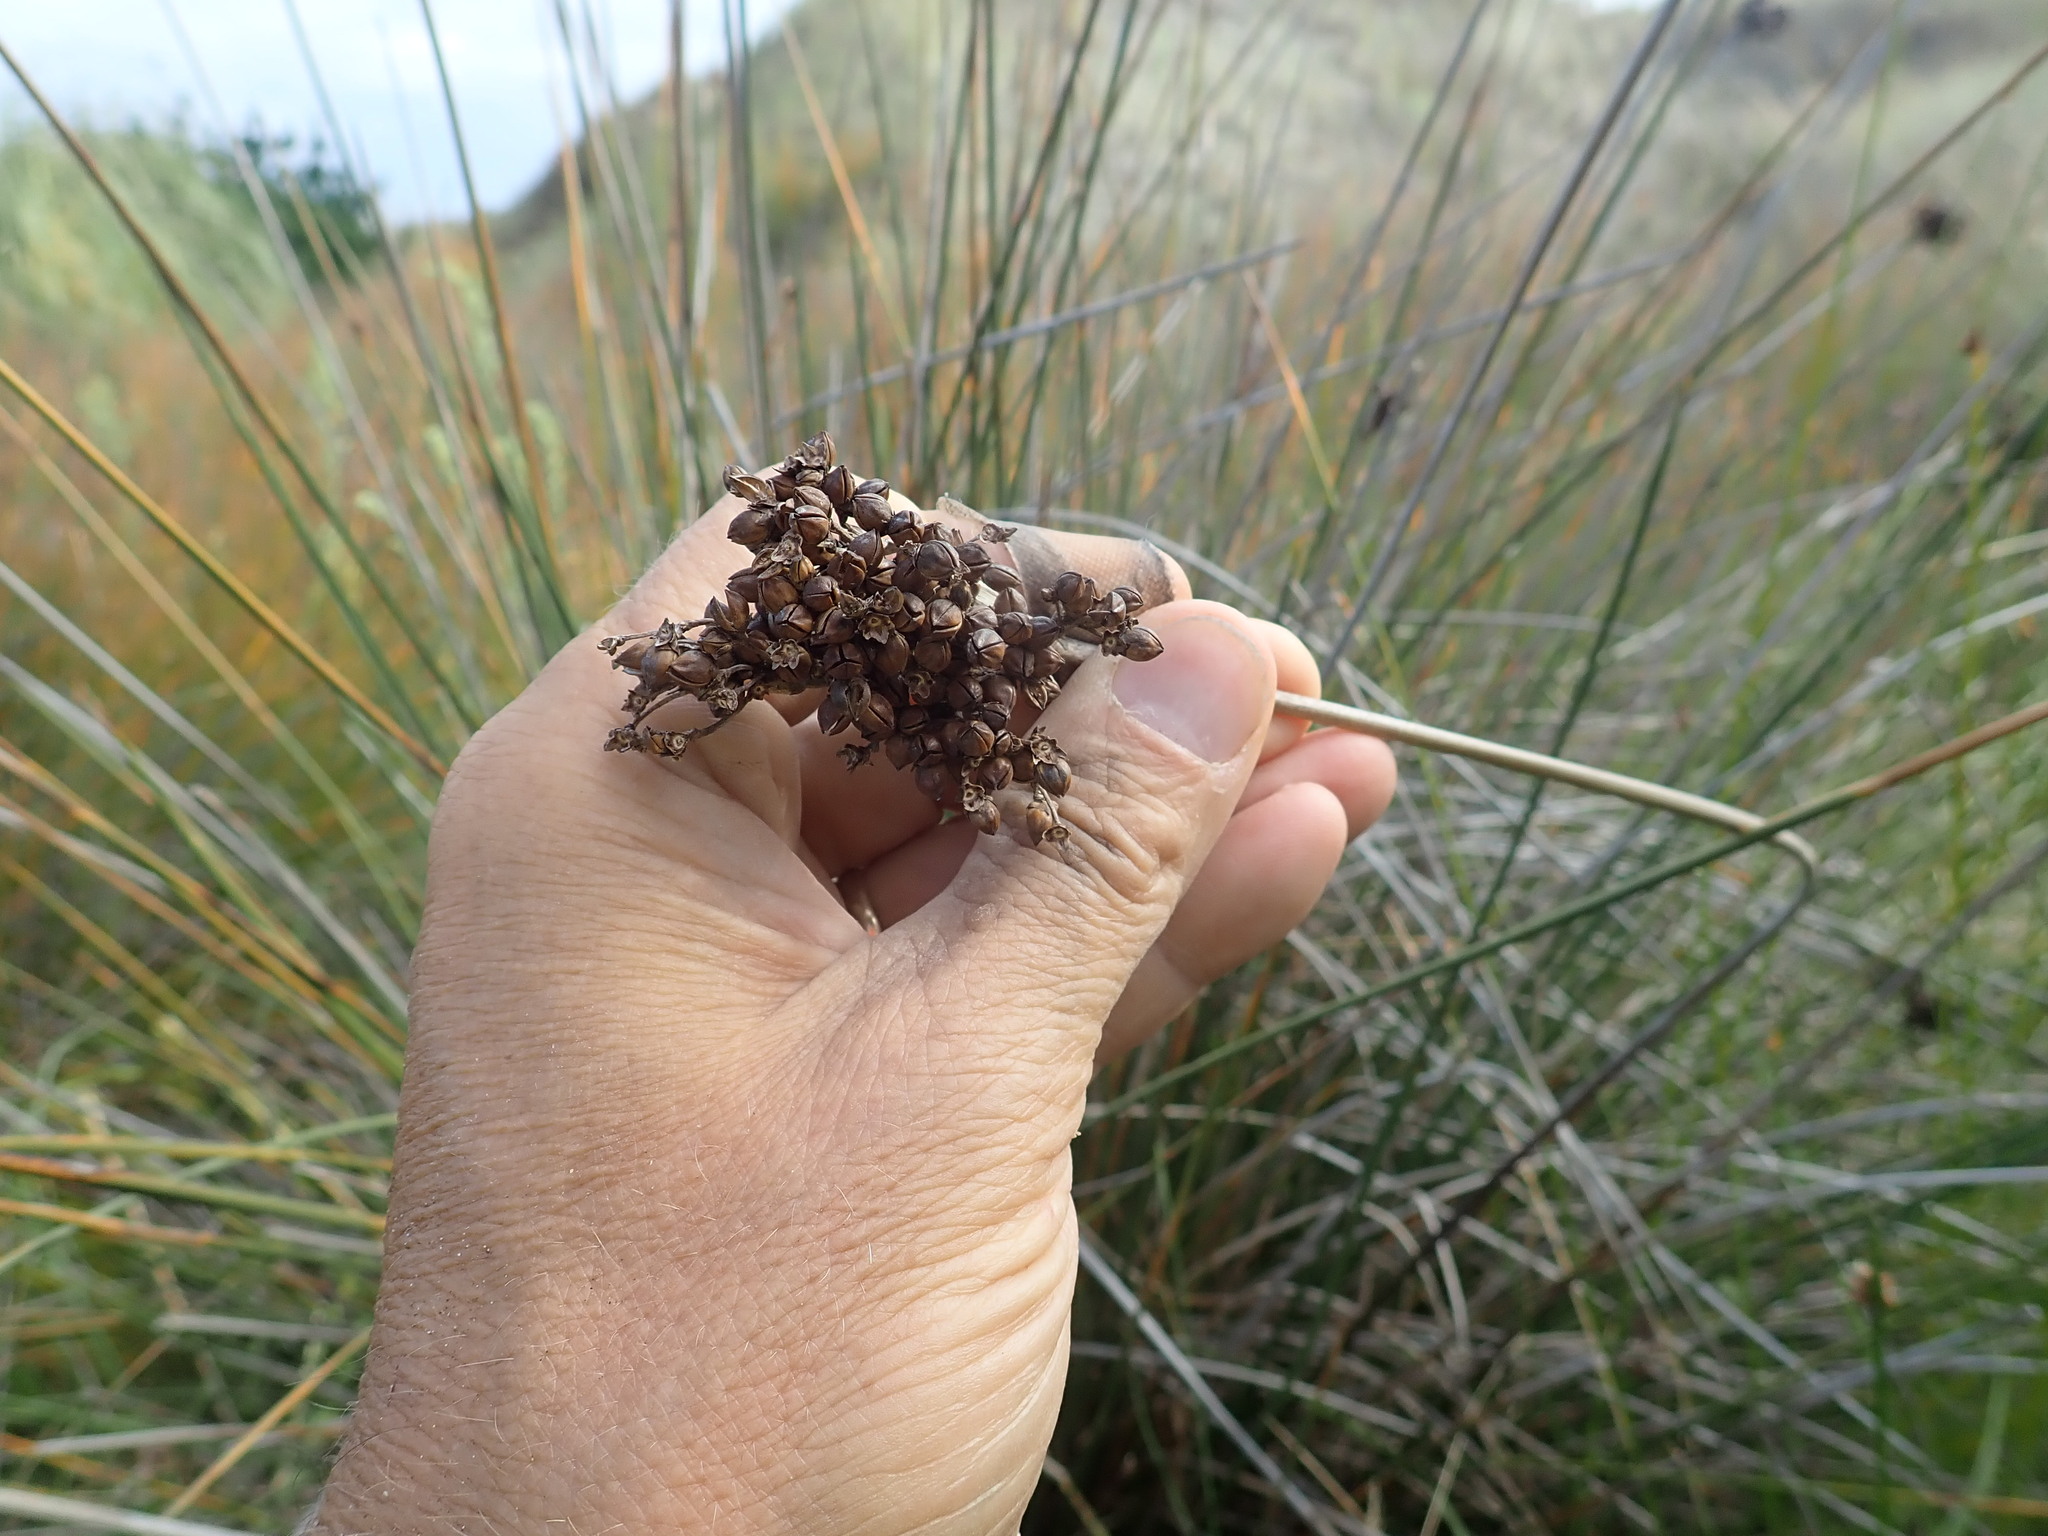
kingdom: Plantae
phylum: Tracheophyta
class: Liliopsida
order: Poales
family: Juncaceae
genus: Juncus
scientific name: Juncus acutus
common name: Sharp rush
